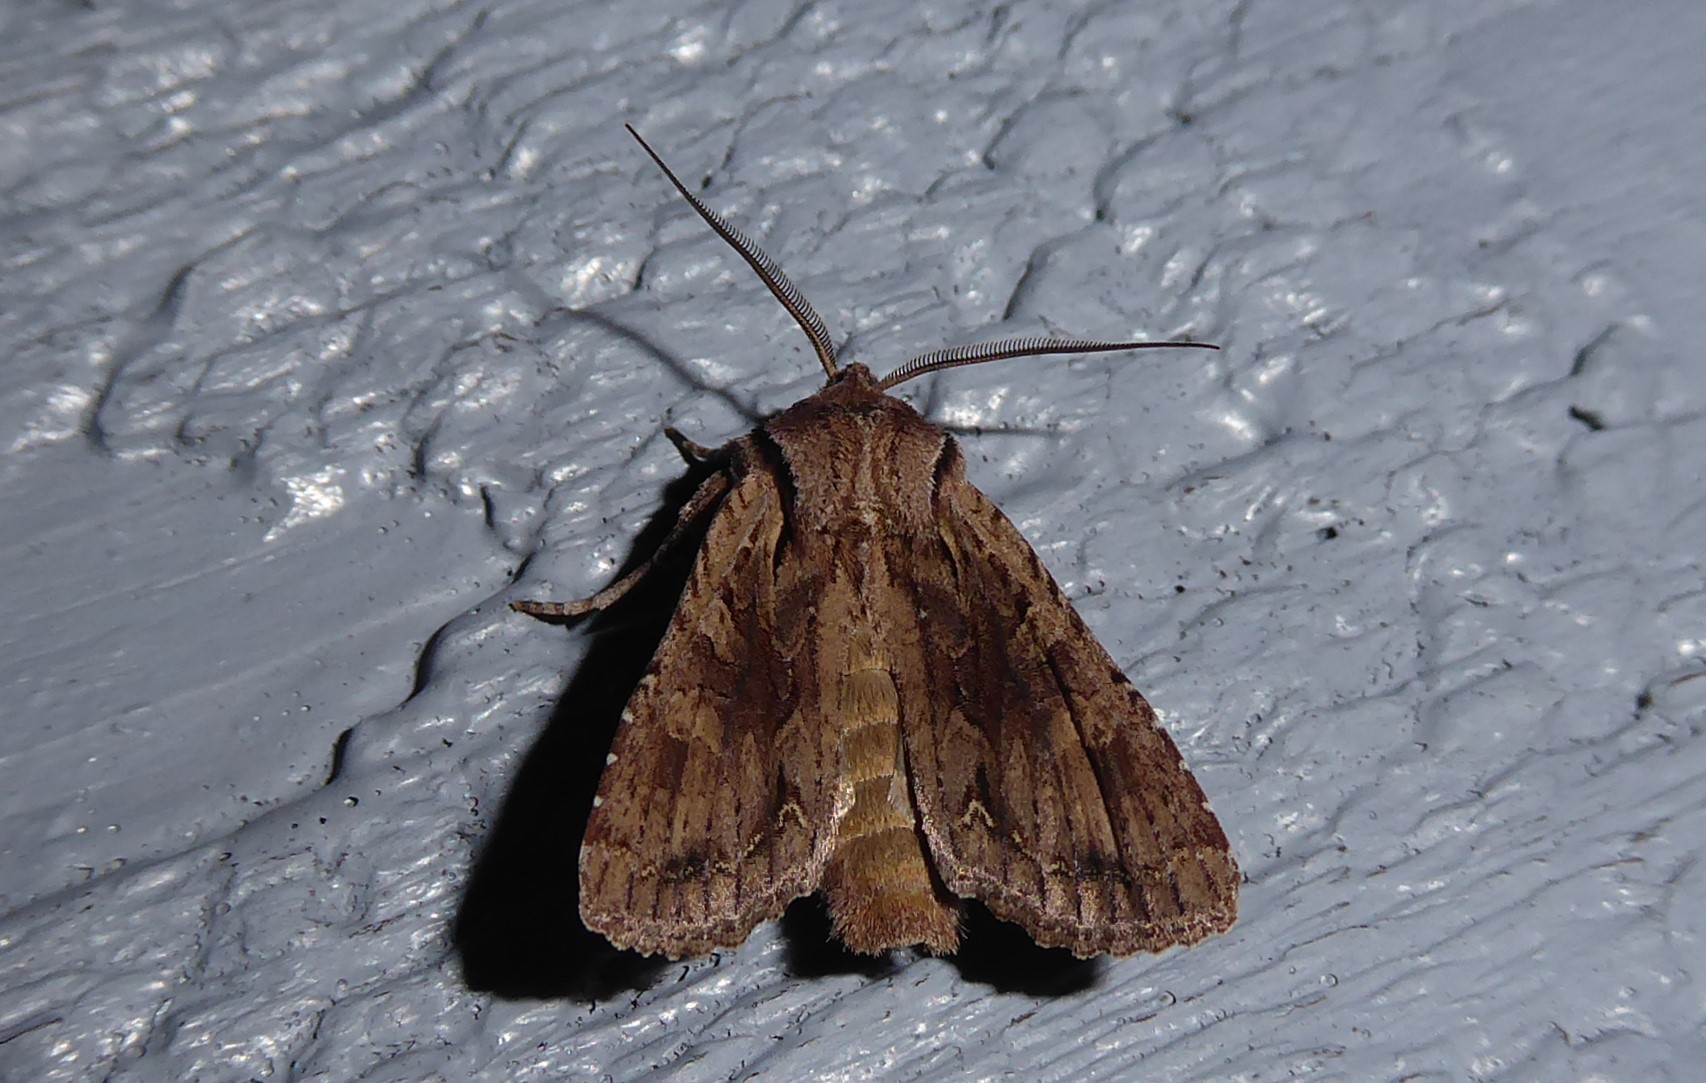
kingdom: Animalia
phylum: Arthropoda
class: Insecta
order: Lepidoptera
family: Noctuidae
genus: Ichneutica
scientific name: Ichneutica
